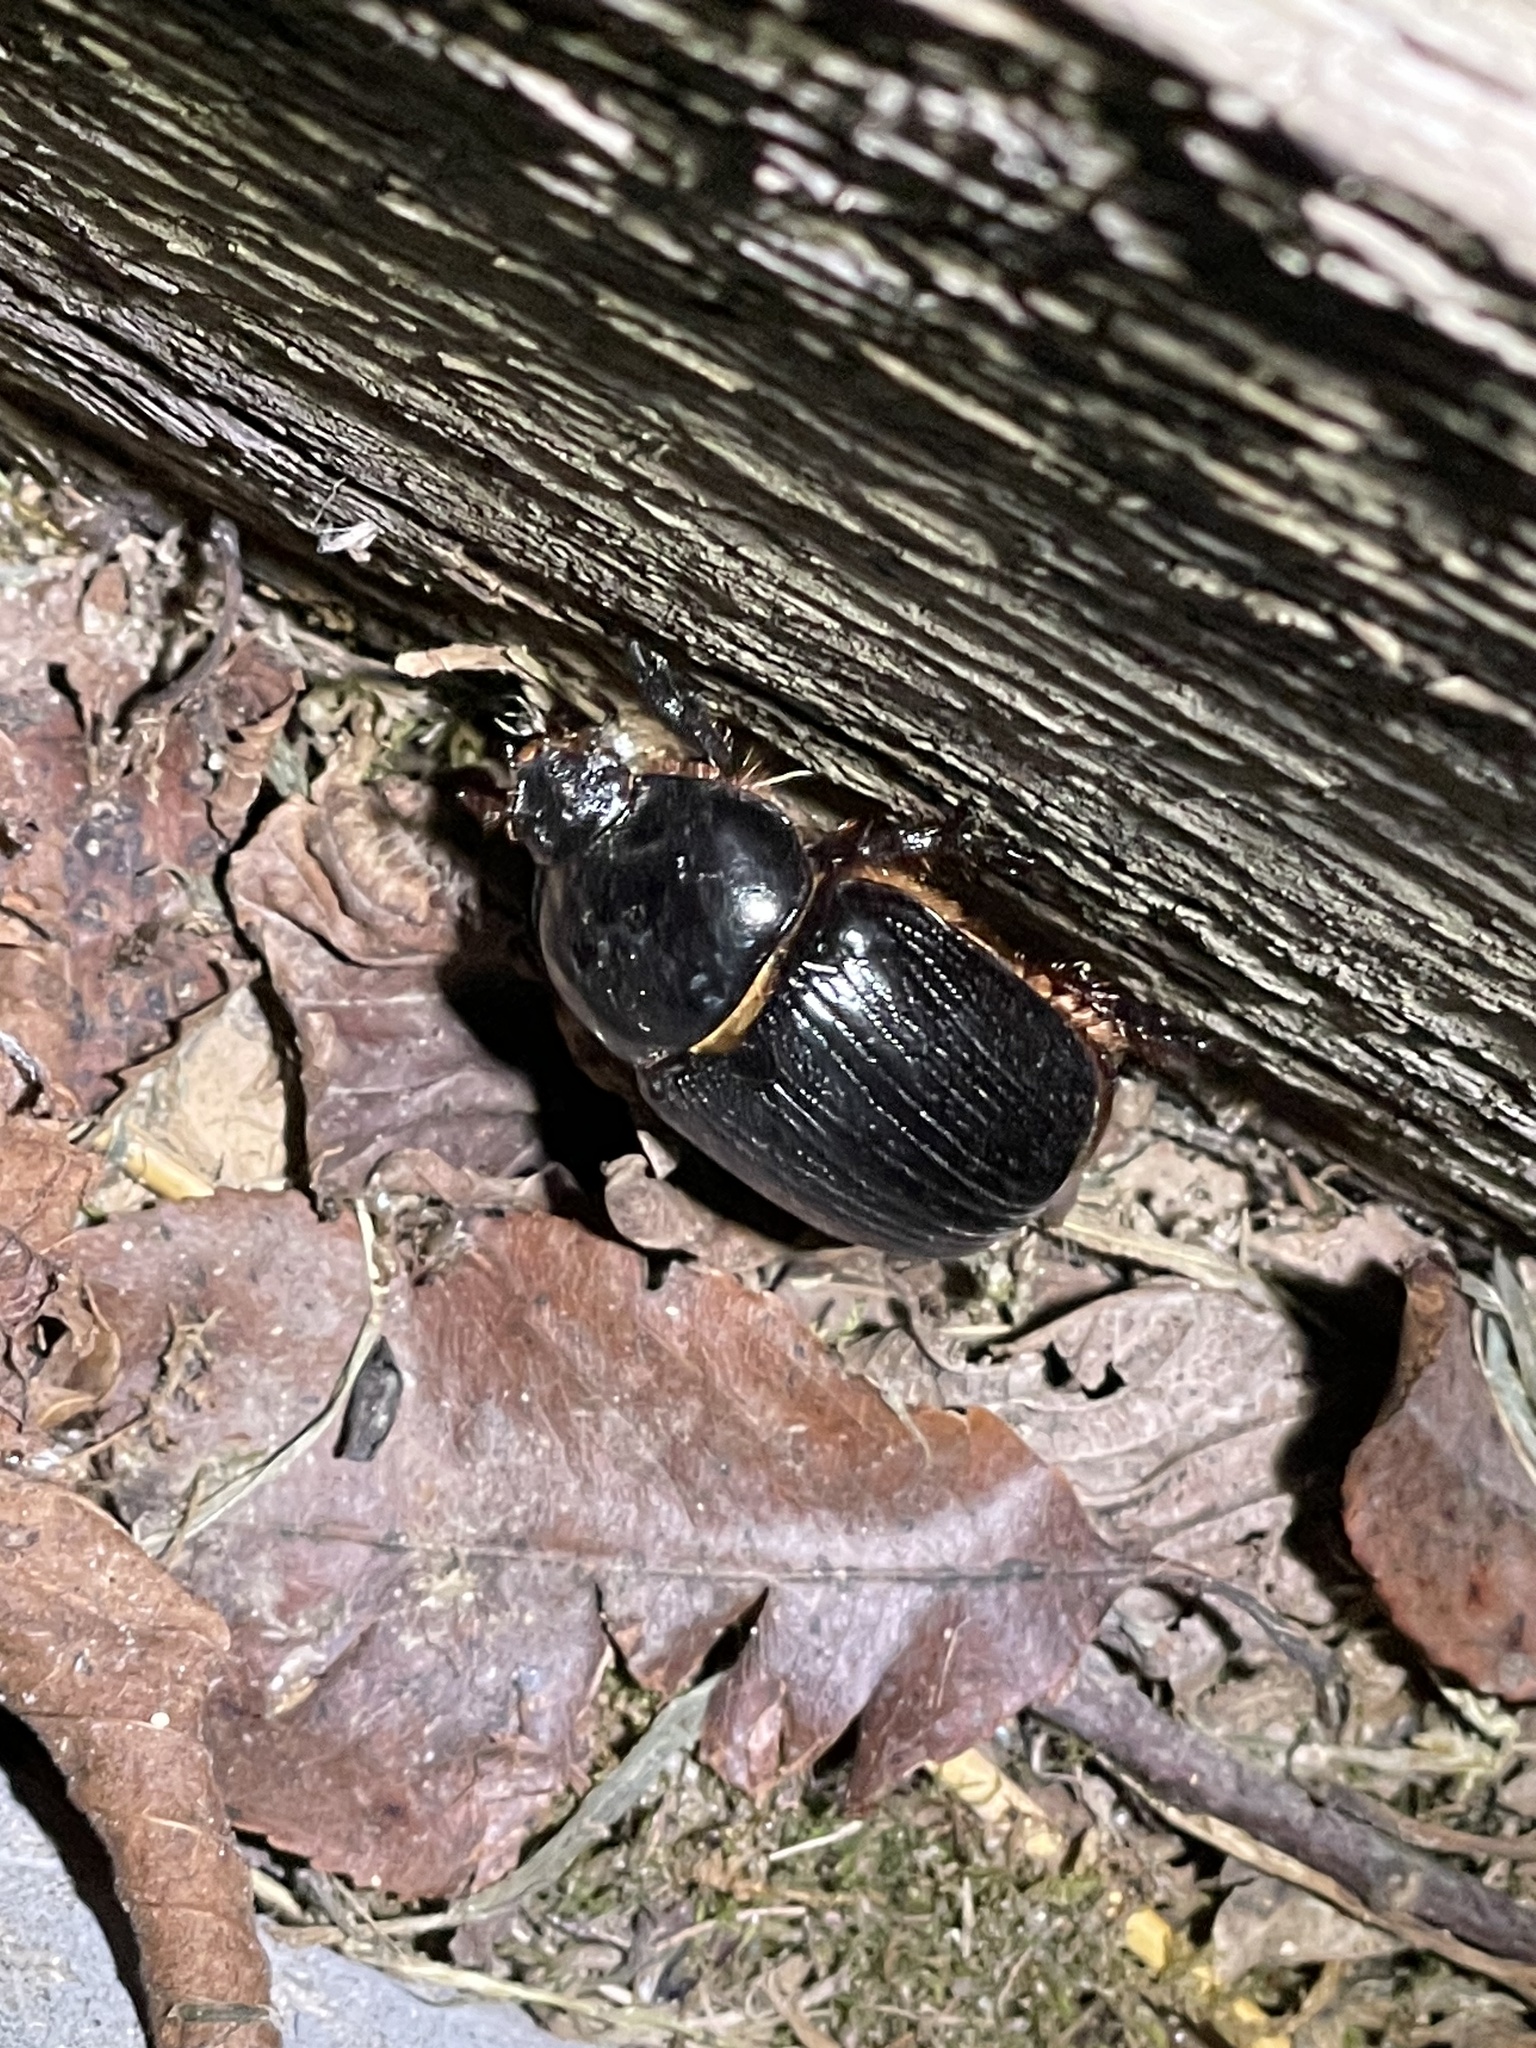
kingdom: Animalia
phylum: Arthropoda
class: Insecta
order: Coleoptera
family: Scarabaeidae
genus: Xyloryctes
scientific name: Xyloryctes jamaicensis
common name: Eastern rhinoceros beetle
